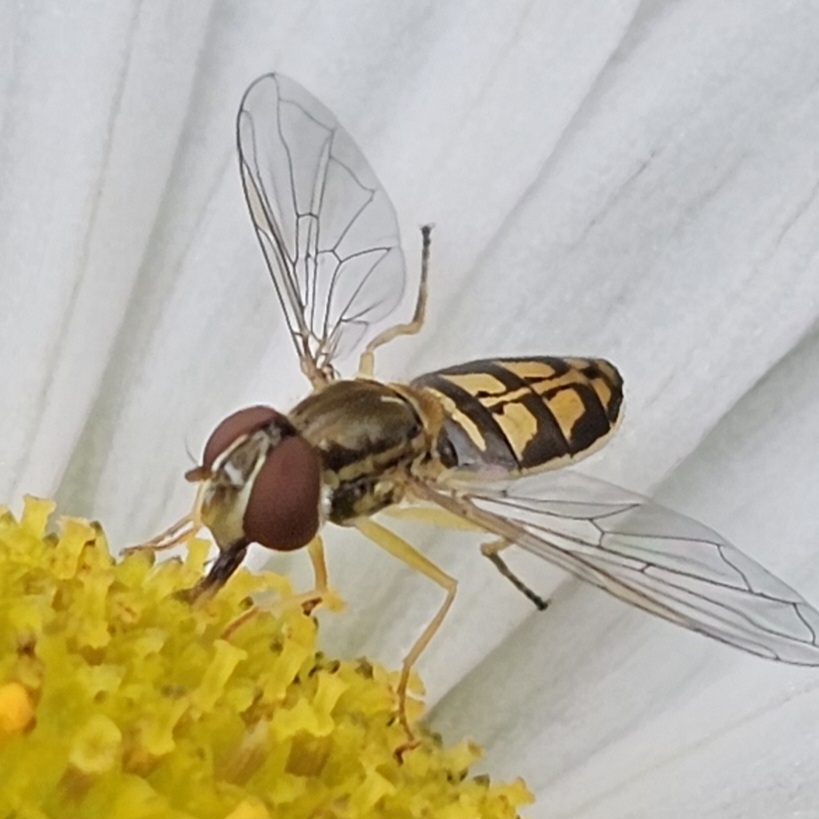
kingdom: Animalia
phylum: Arthropoda
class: Insecta
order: Diptera
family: Syrphidae
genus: Toxomerus
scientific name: Toxomerus marginatus
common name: Syrphid fly
